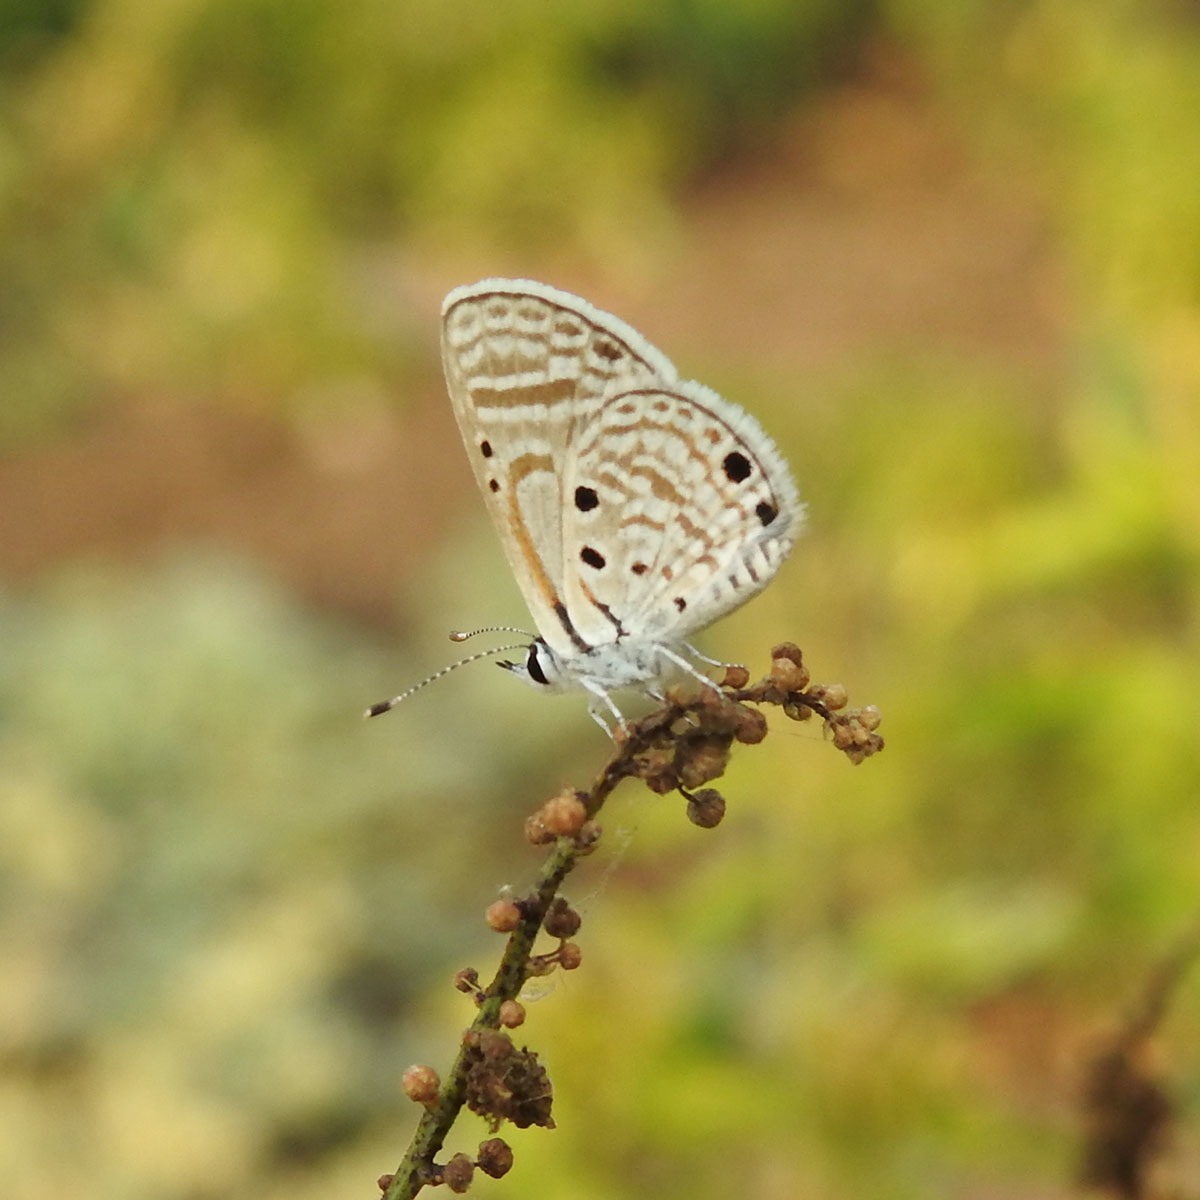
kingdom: Animalia
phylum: Arthropoda
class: Insecta
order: Lepidoptera
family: Lycaenidae
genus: Azanus
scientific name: Azanus ubaldus
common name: Desert babul blue
